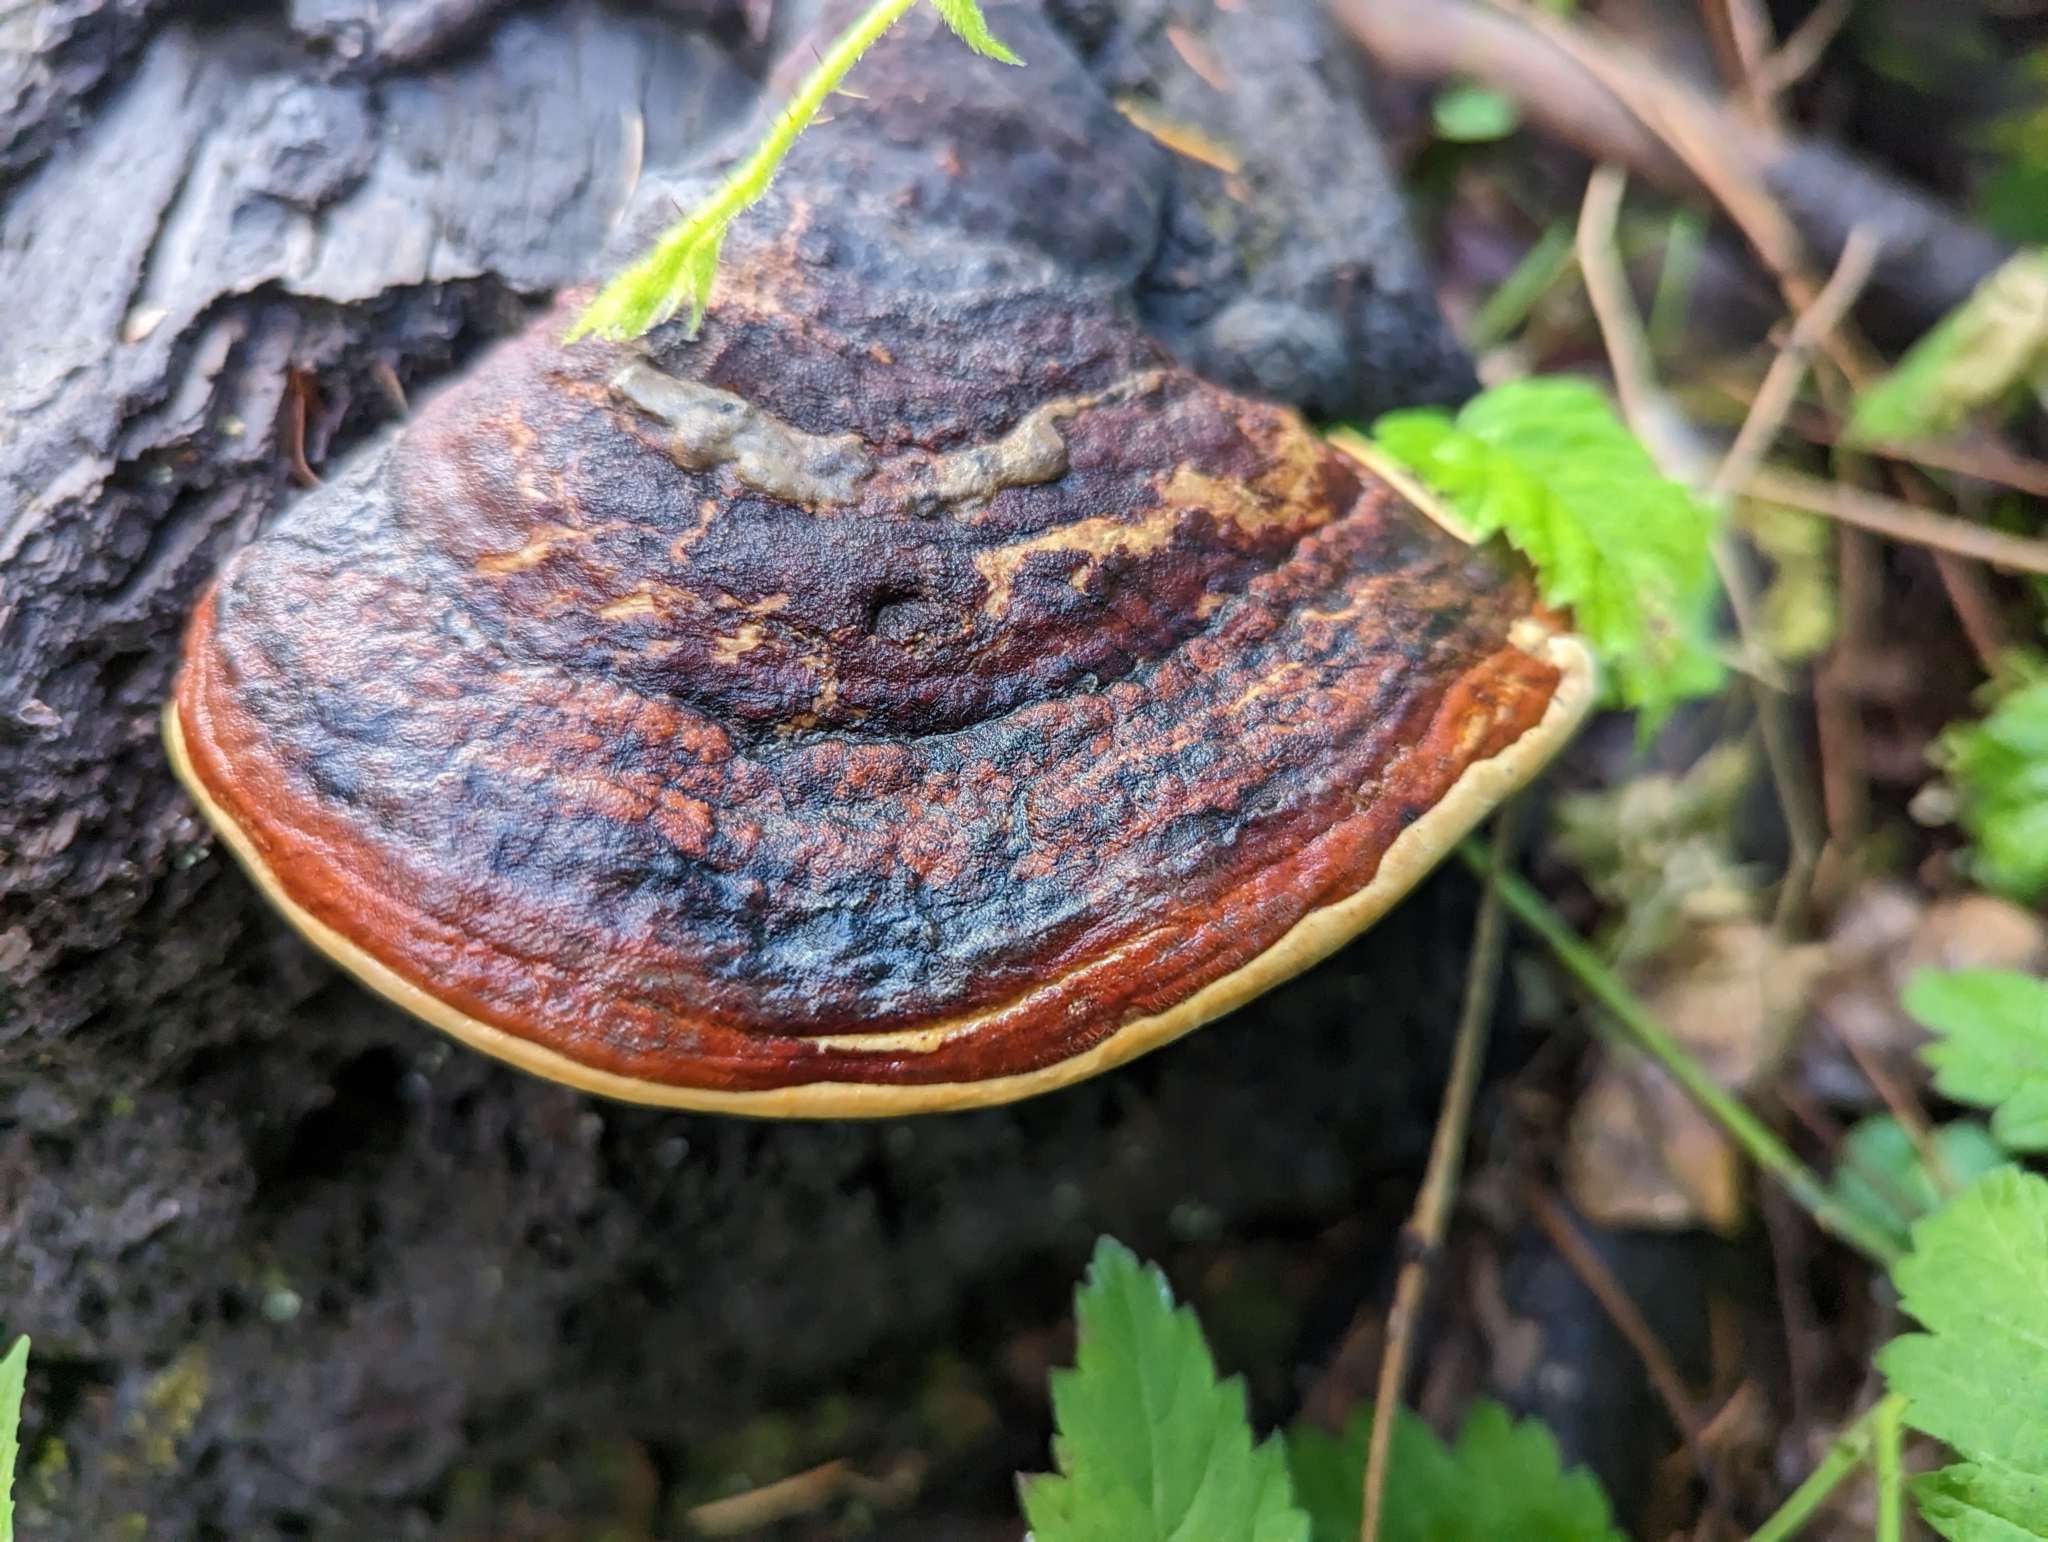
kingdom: Fungi
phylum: Basidiomycota
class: Agaricomycetes
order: Polyporales
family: Fomitopsidaceae
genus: Fomitopsis
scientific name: Fomitopsis mounceae
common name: Northern red belt
